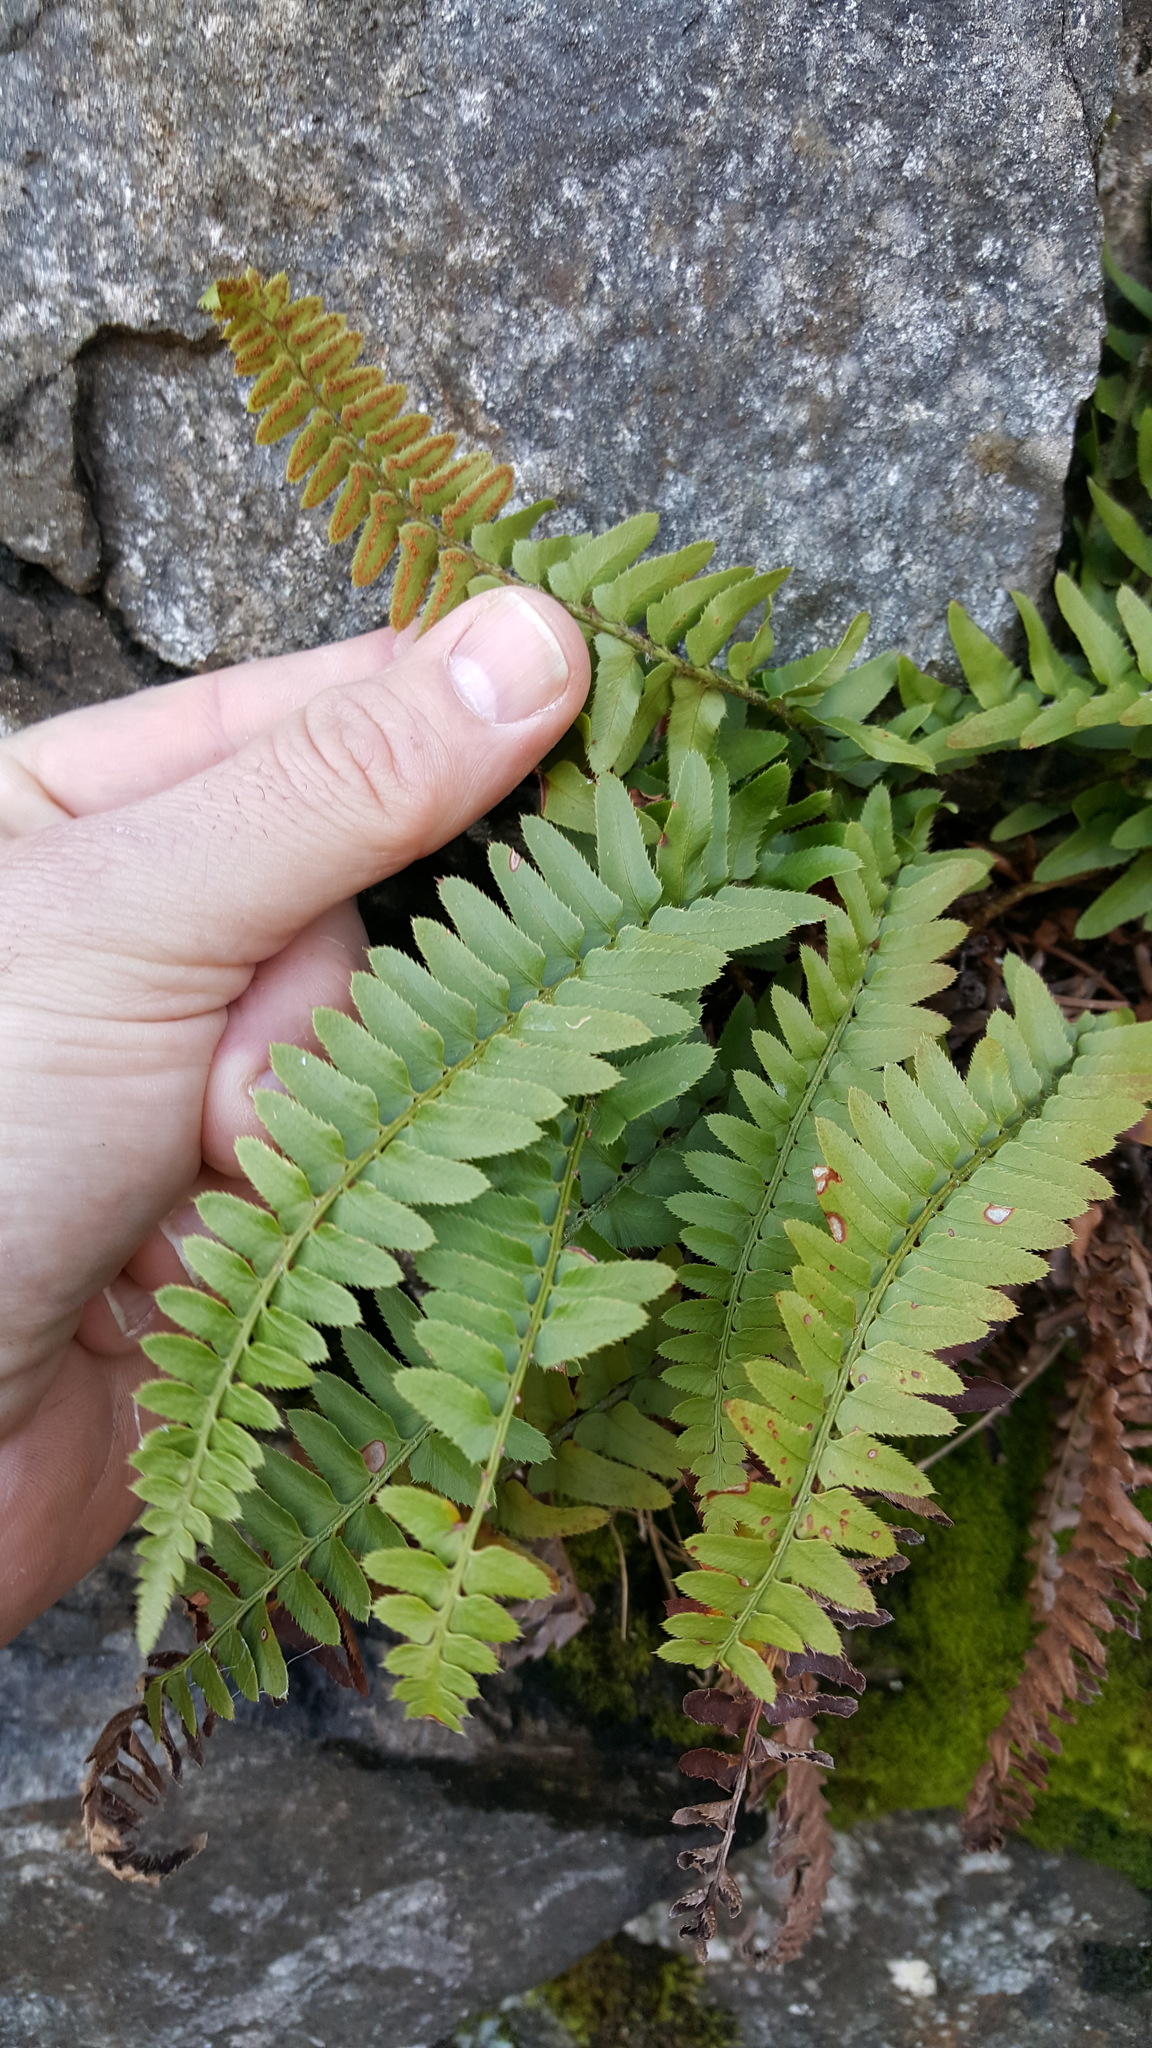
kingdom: Plantae
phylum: Tracheophyta
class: Polypodiopsida
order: Polypodiales
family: Dryopteridaceae
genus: Polystichum
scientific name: Polystichum imbricans
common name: Dwarf western sword fern
